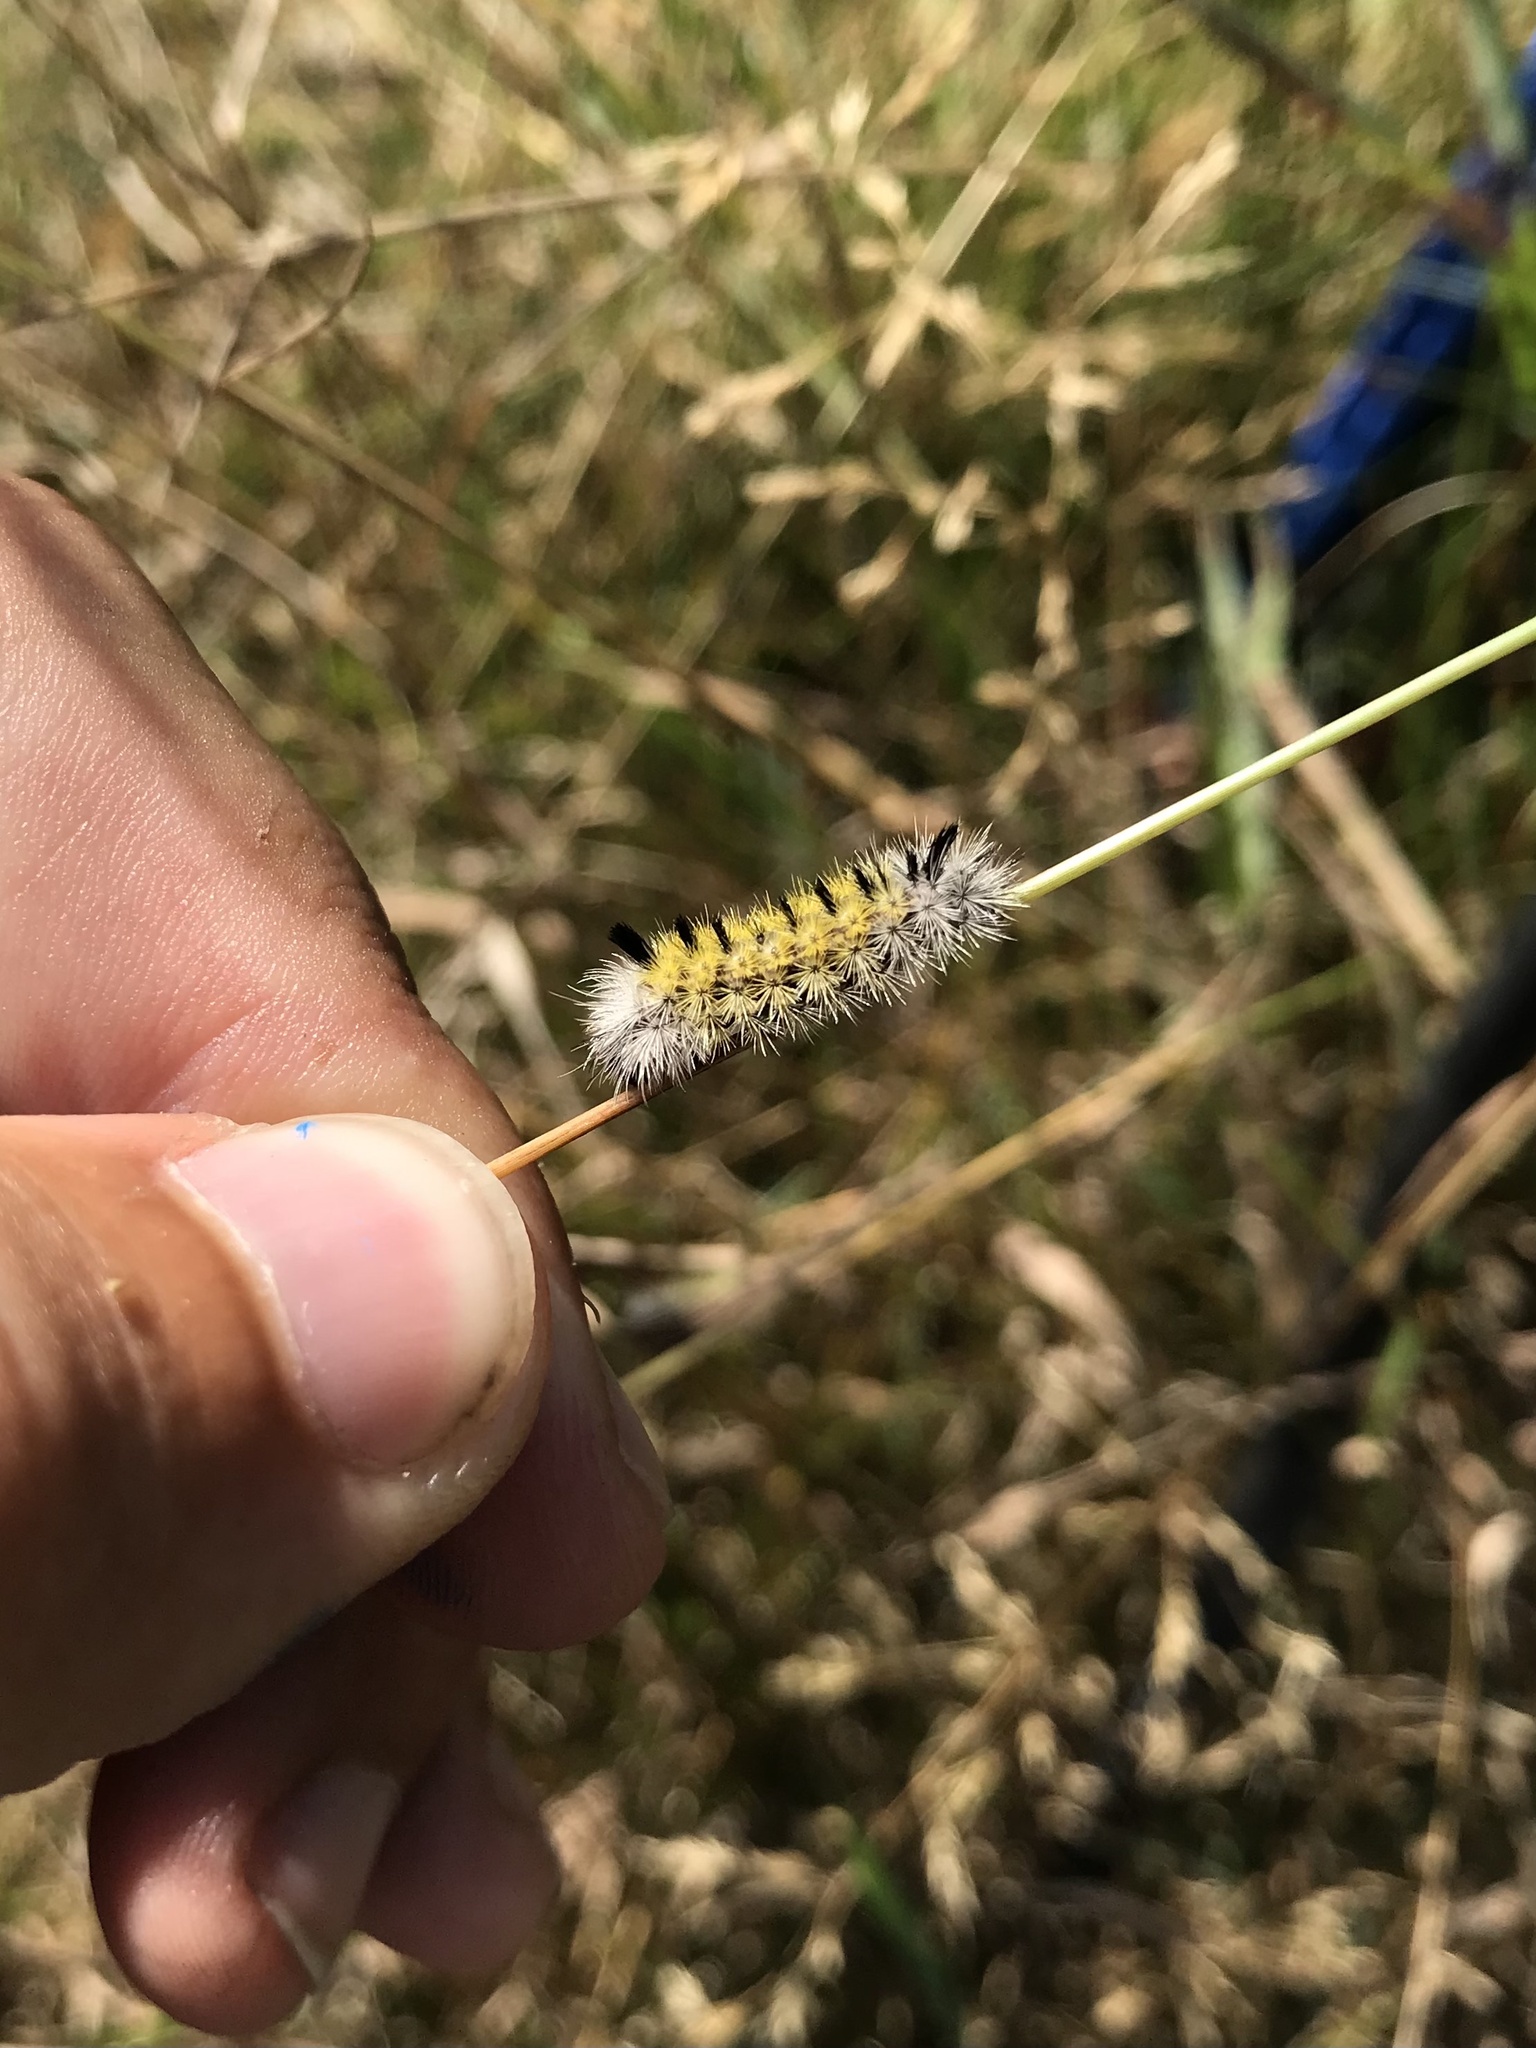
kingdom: Animalia
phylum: Arthropoda
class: Insecta
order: Lepidoptera
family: Erebidae
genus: Ctenucha
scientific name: Ctenucha virginica
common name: Virginia ctenucha moth
